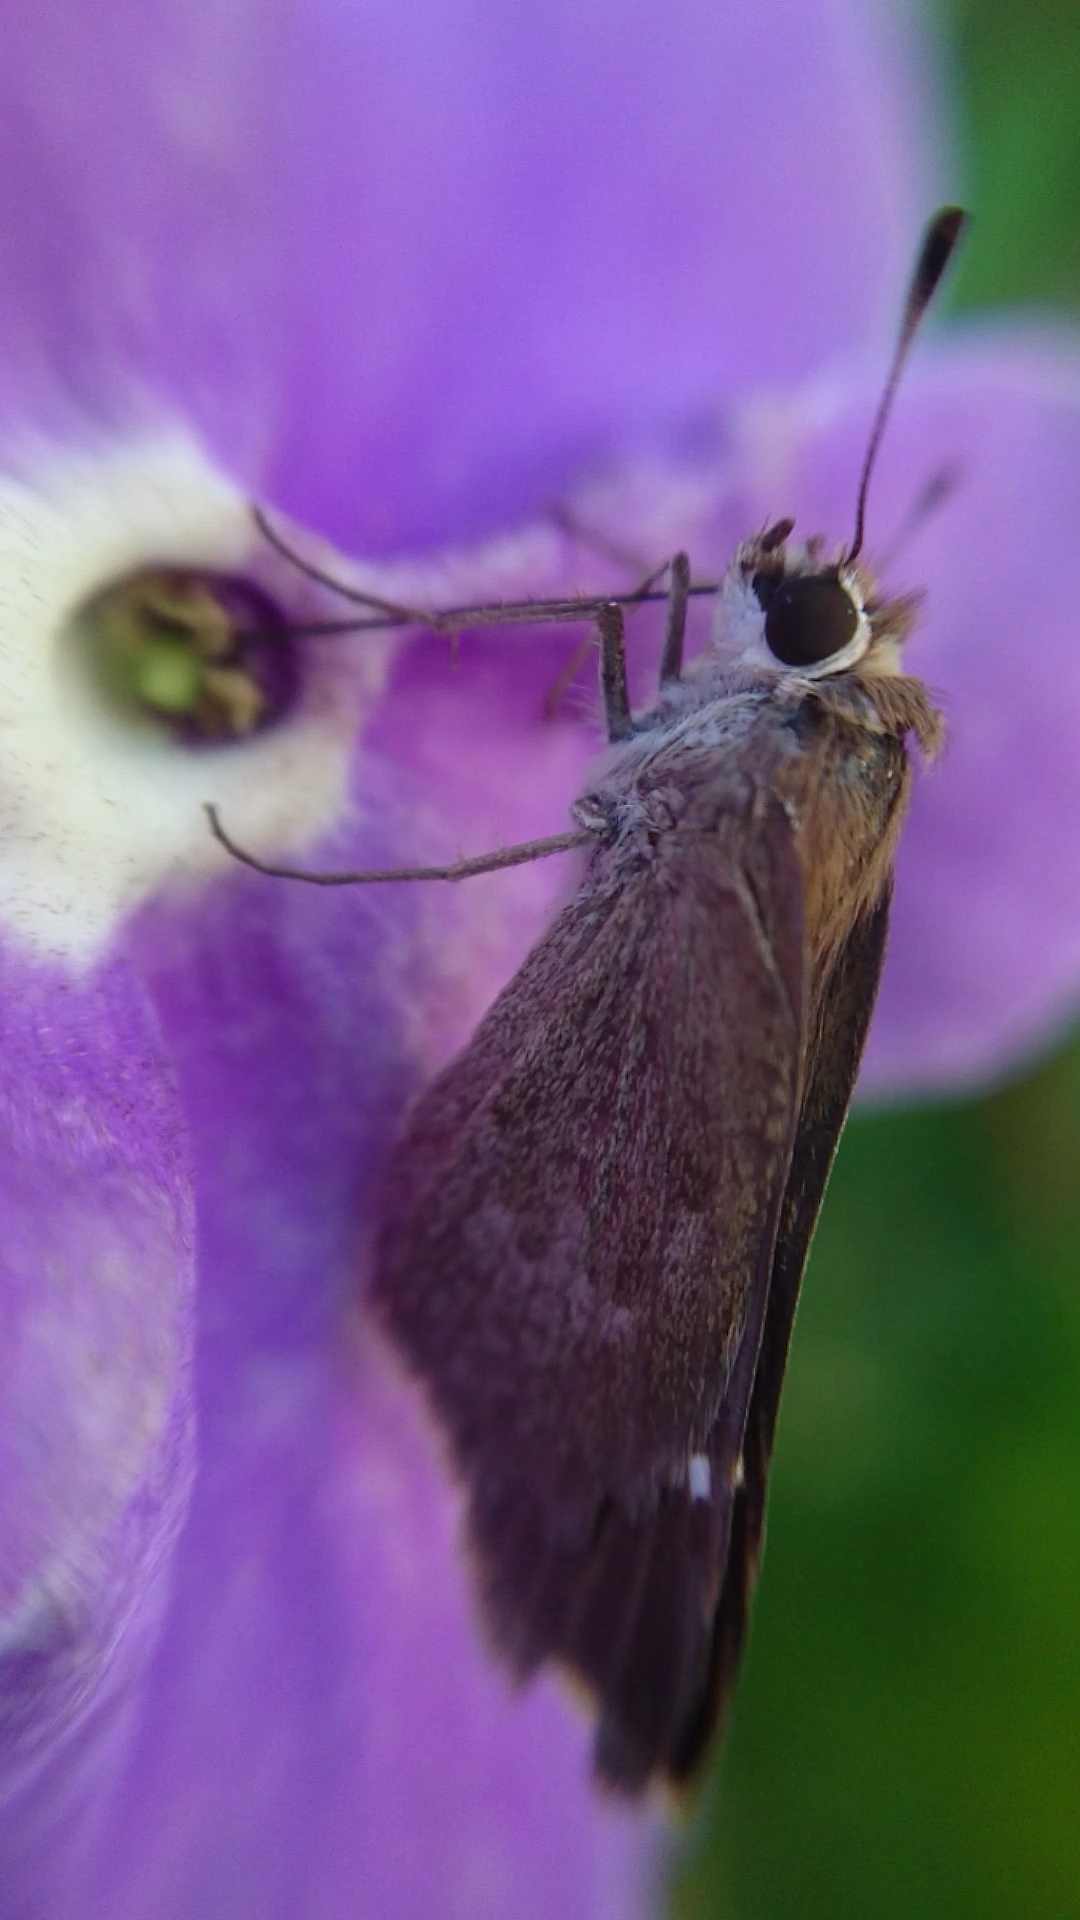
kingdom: Animalia
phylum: Arthropoda
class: Insecta
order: Lepidoptera
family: Hesperiidae
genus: Lerodea
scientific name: Lerodea eufala
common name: Eufala skipper
